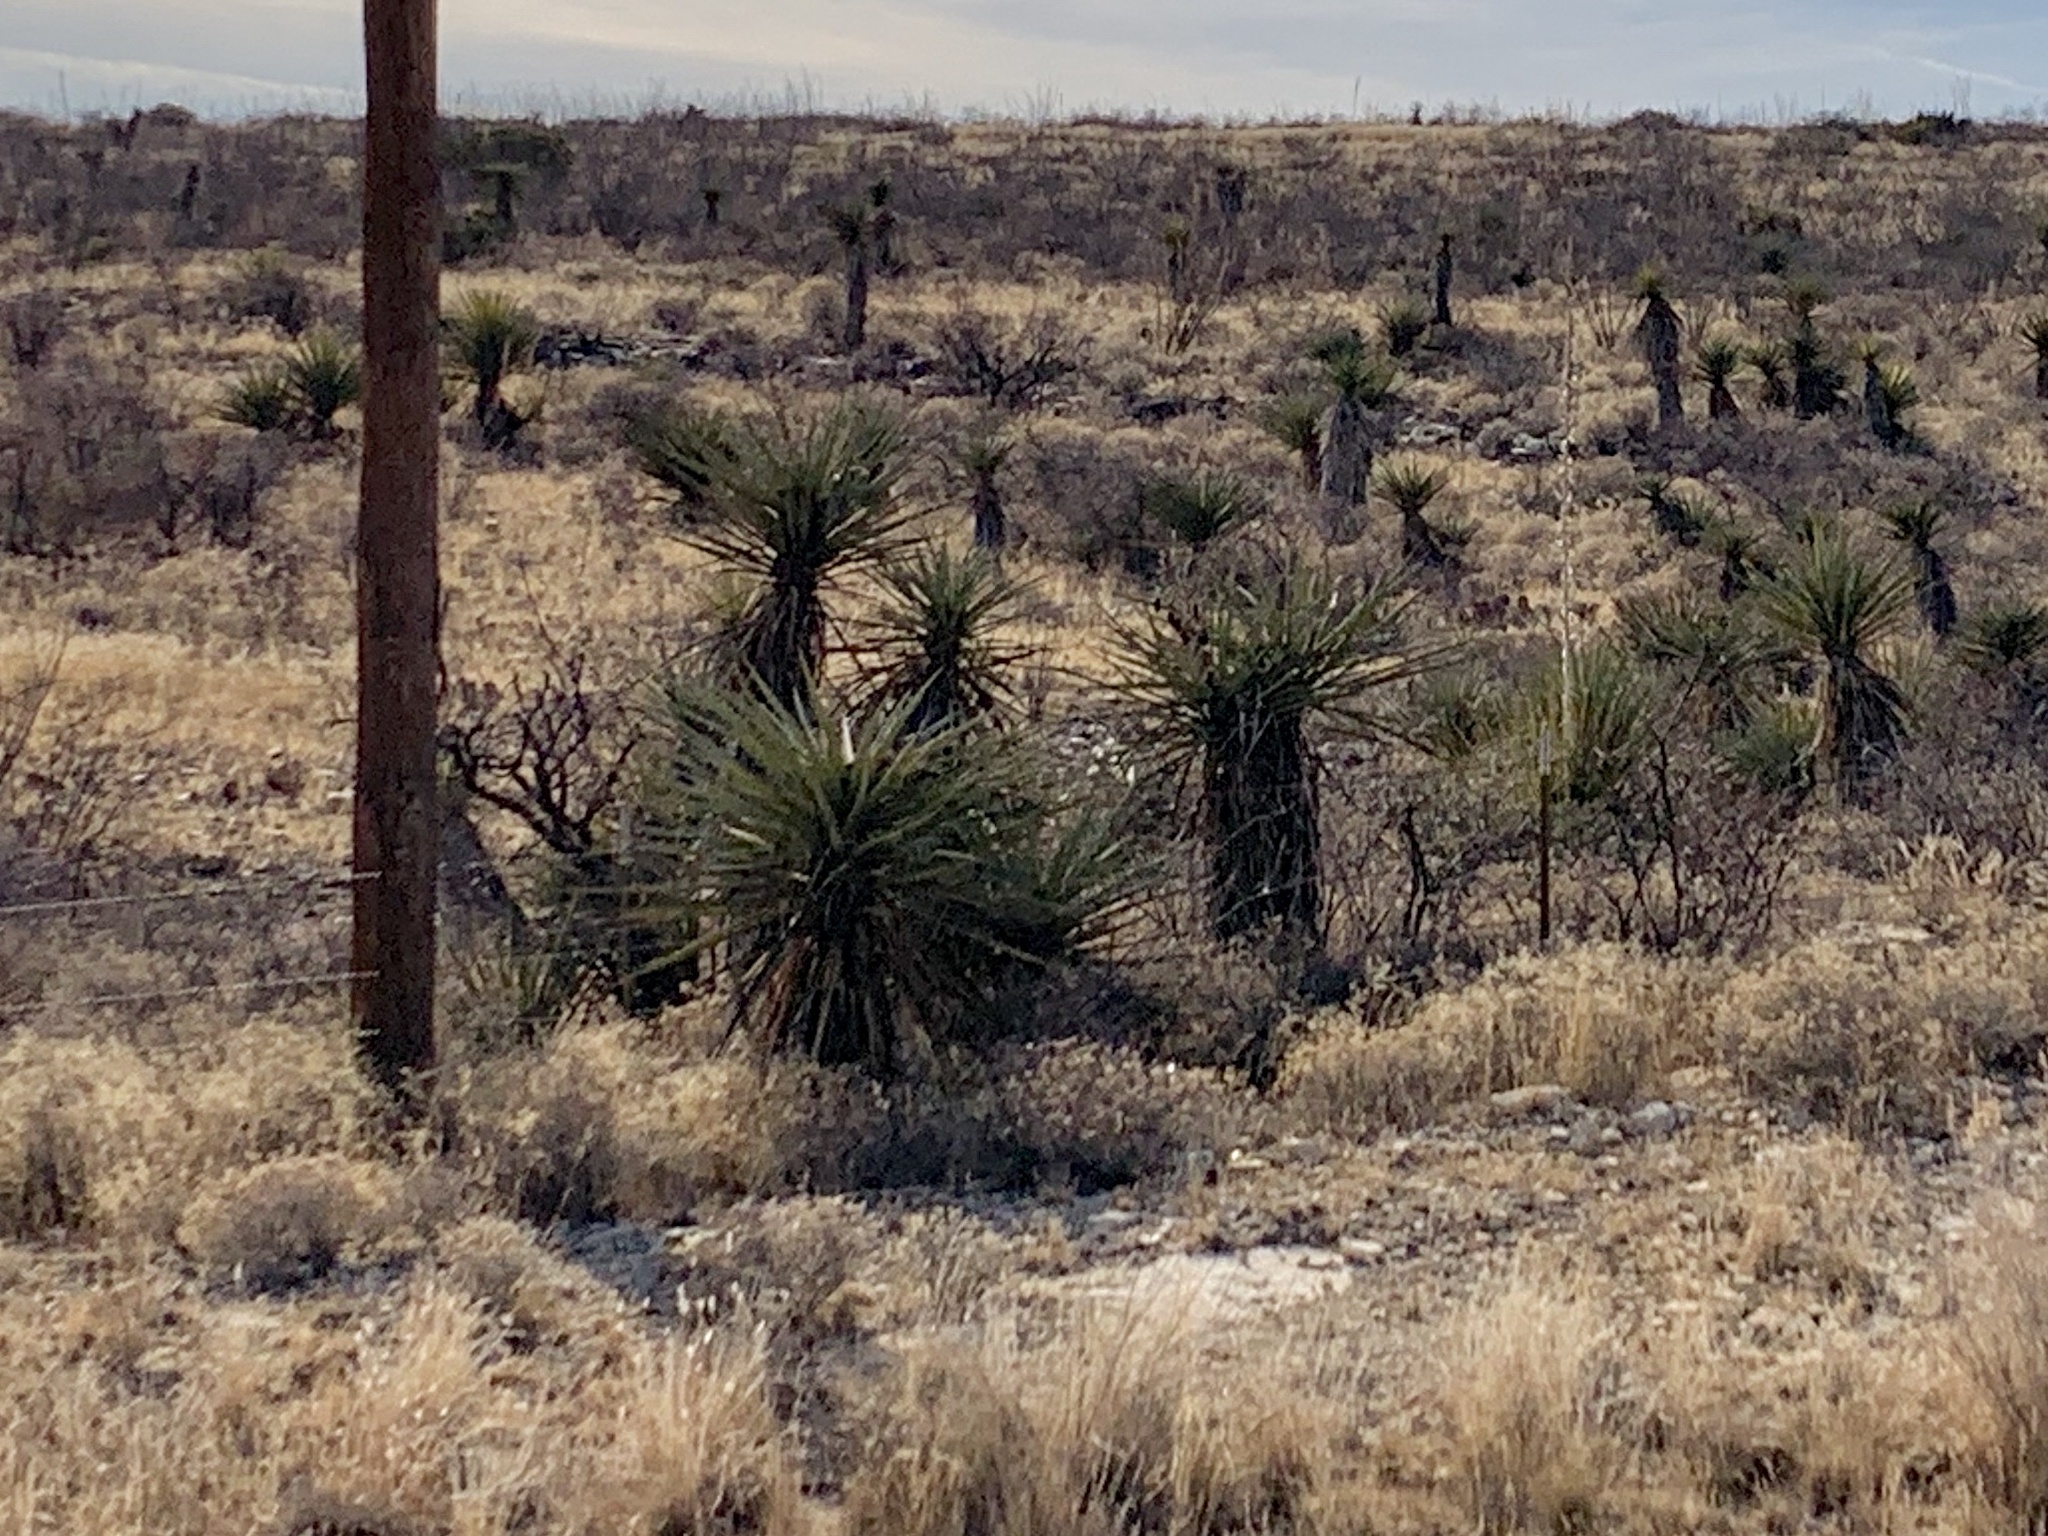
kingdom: Plantae
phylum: Tracheophyta
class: Liliopsida
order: Asparagales
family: Asparagaceae
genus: Yucca
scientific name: Yucca treculiana
